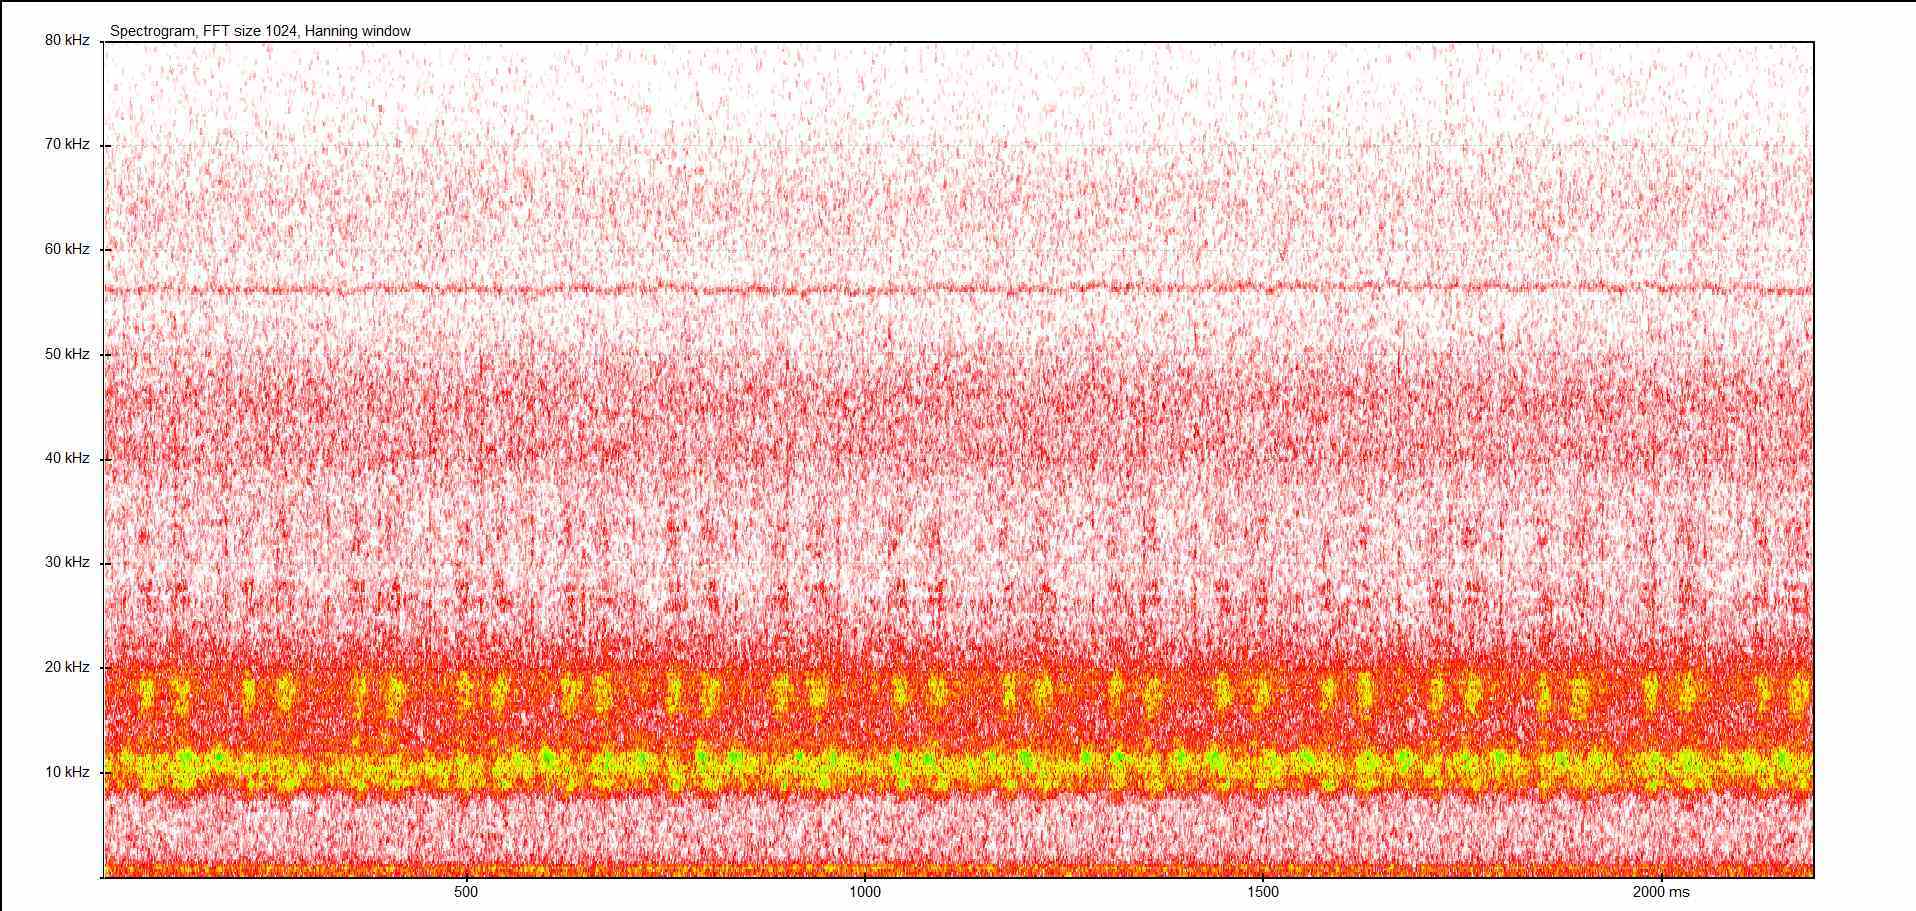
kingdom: Animalia
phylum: Arthropoda
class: Insecta
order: Orthoptera
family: Tettigoniidae
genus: Tettigonia
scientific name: Tettigonia viridissima
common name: Great green bush-cricket
